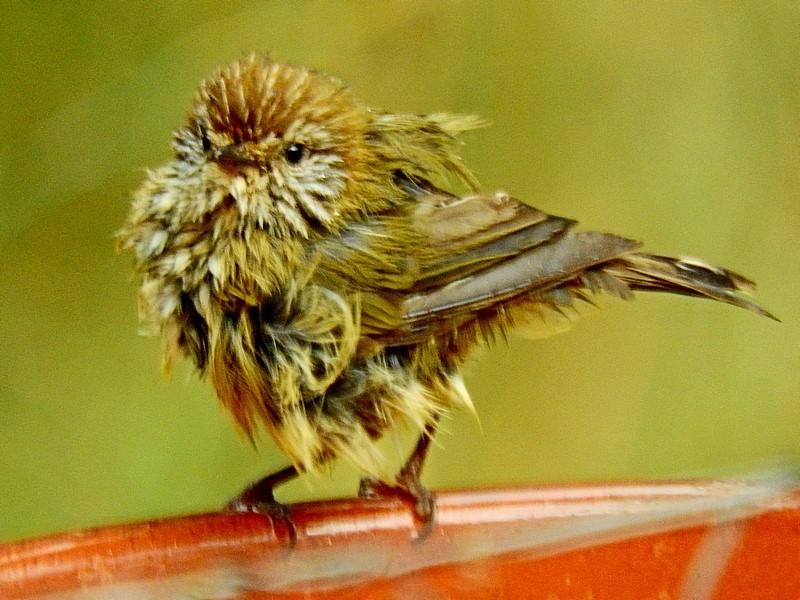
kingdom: Animalia
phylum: Chordata
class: Aves
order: Passeriformes
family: Acanthizidae
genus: Acanthiza
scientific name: Acanthiza lineata
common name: Striated thornbill
